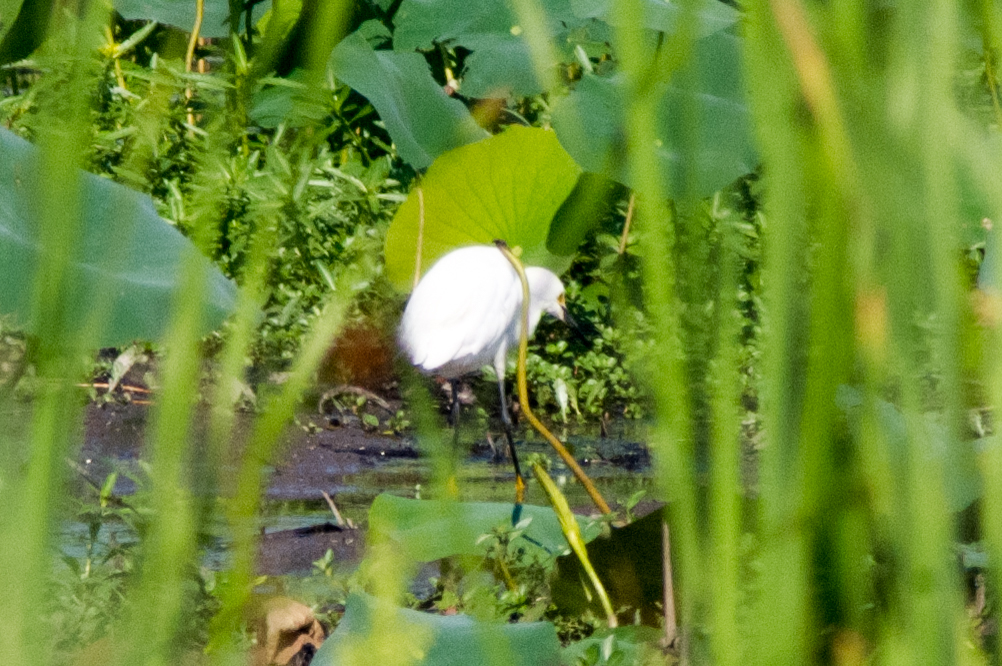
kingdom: Animalia
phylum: Chordata
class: Aves
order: Pelecaniformes
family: Ardeidae
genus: Egretta
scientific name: Egretta thula
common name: Snowy egret
